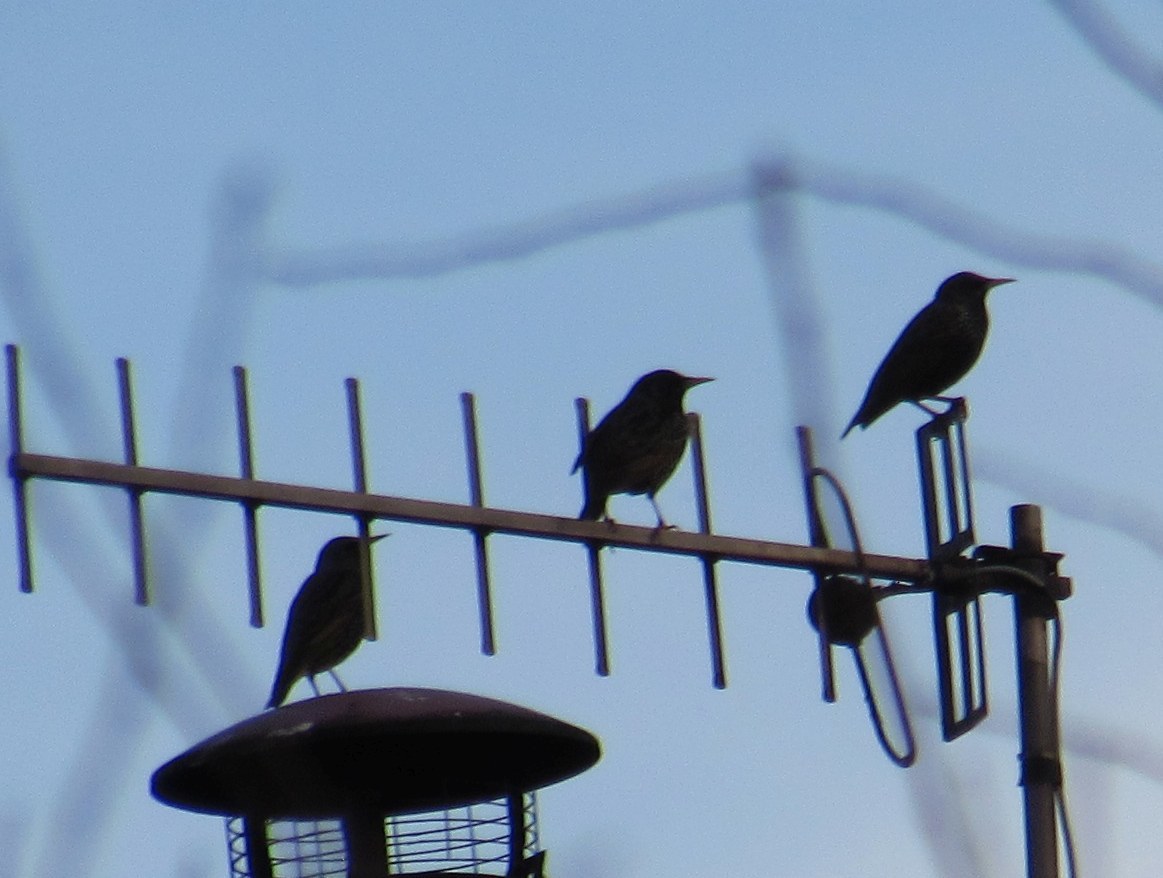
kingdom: Animalia
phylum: Chordata
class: Aves
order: Passeriformes
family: Sturnidae
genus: Sturnus
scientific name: Sturnus vulgaris
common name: Common starling
